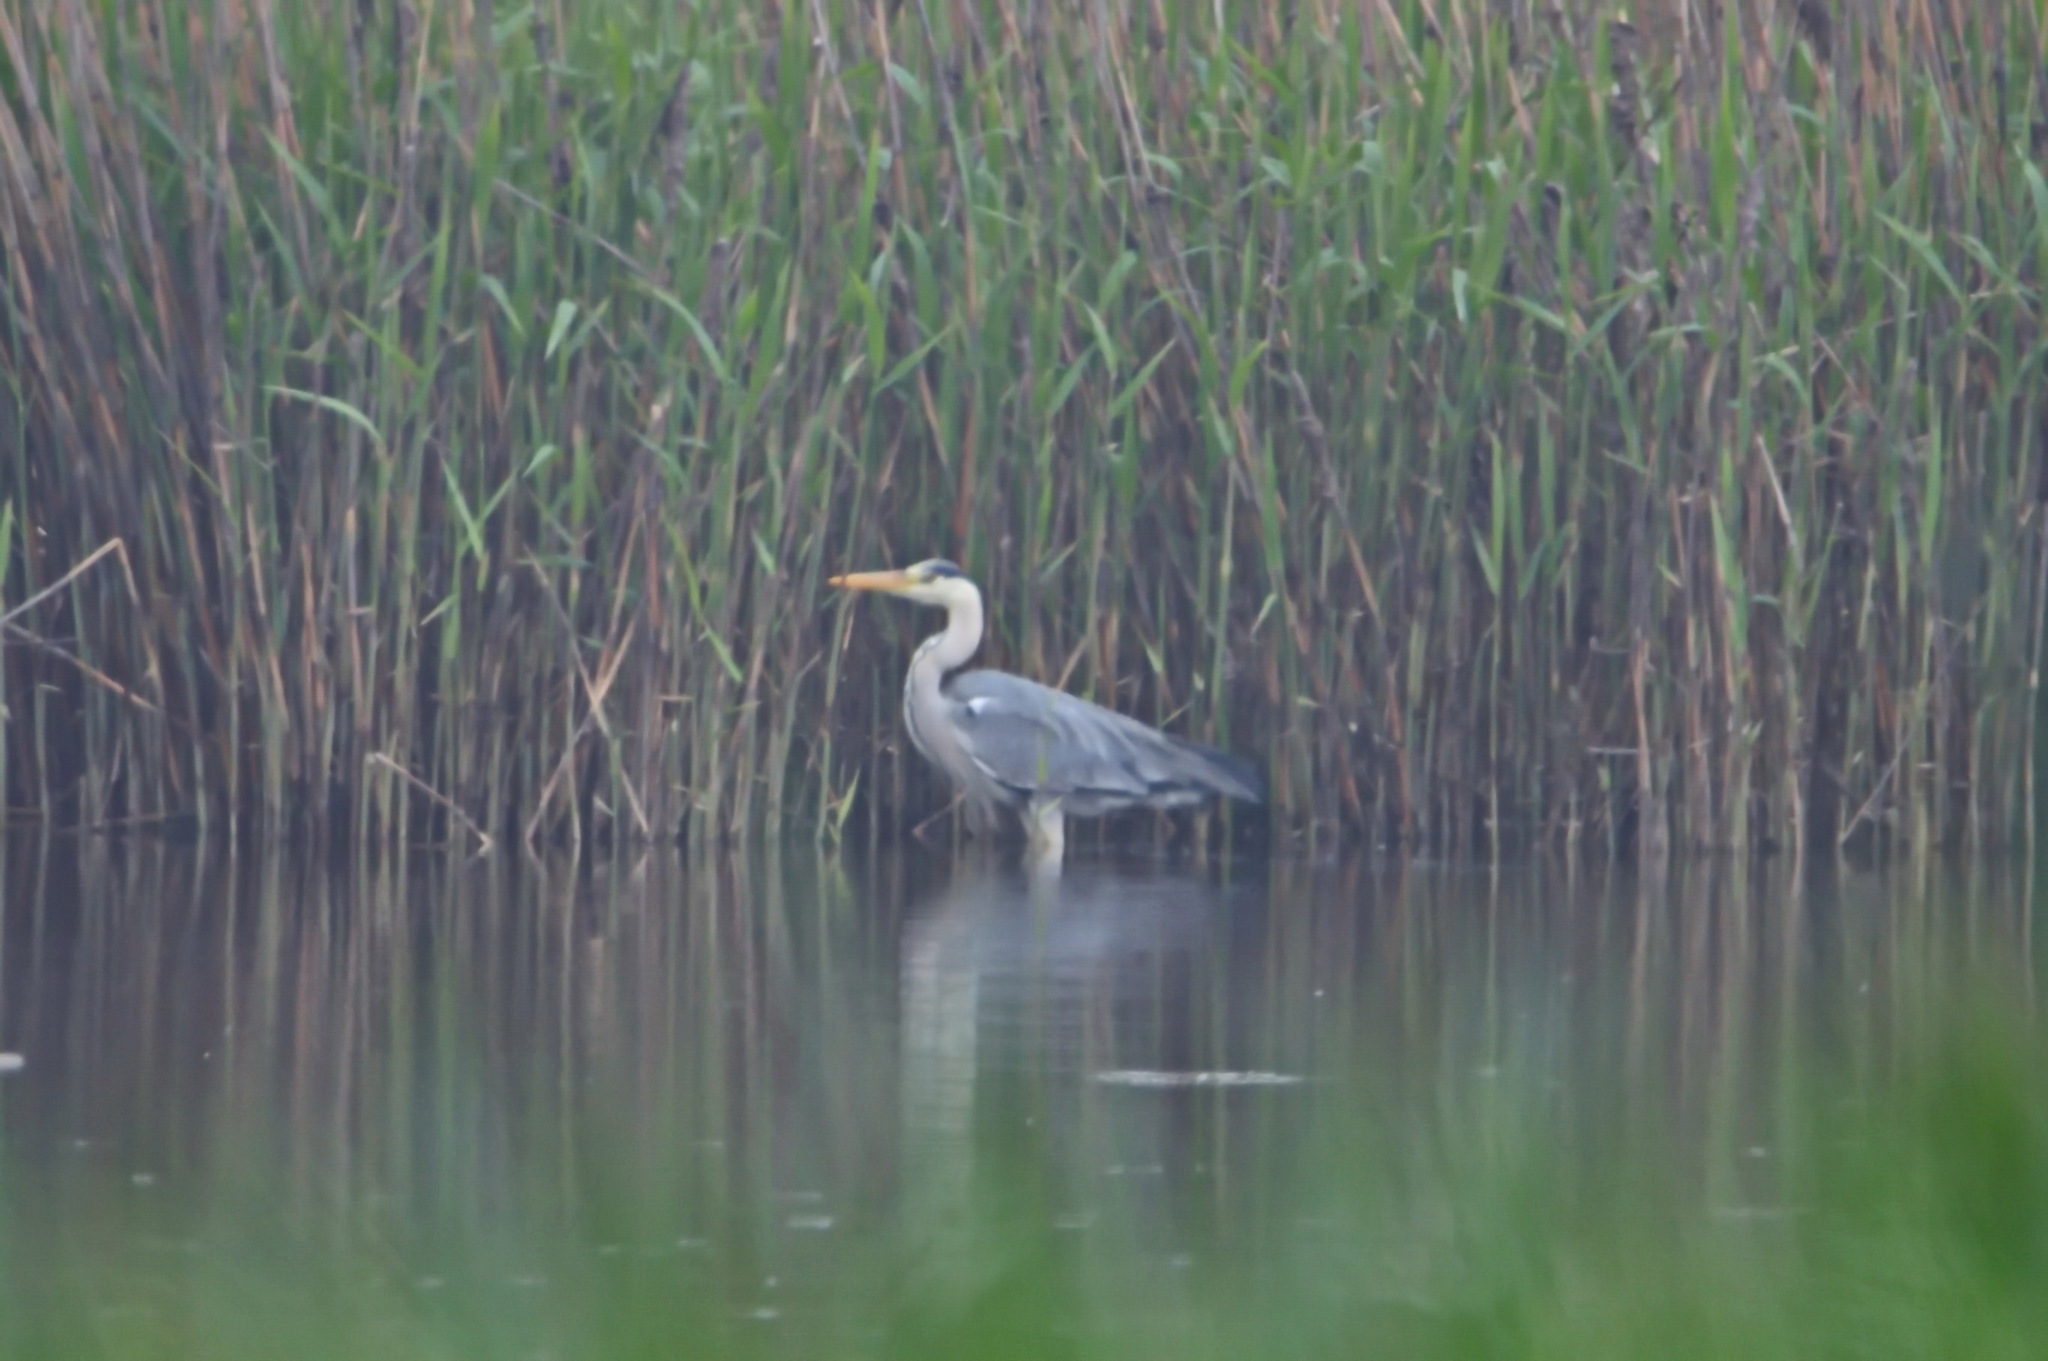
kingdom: Animalia
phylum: Chordata
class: Aves
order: Pelecaniformes
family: Ardeidae
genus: Ardea
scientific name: Ardea cinerea
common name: Grey heron
